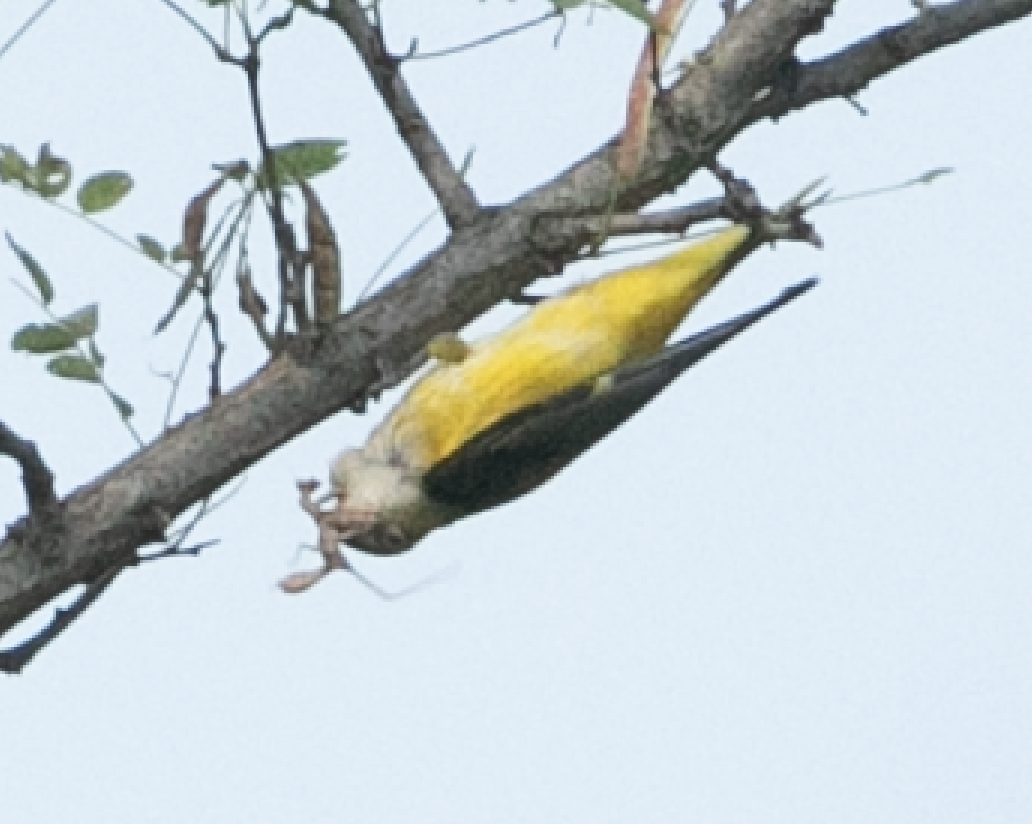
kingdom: Animalia
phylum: Chordata
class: Aves
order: Passeriformes
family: Oriolidae
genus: Oriolus
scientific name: Oriolus oriolus
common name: Eurasian golden oriole
